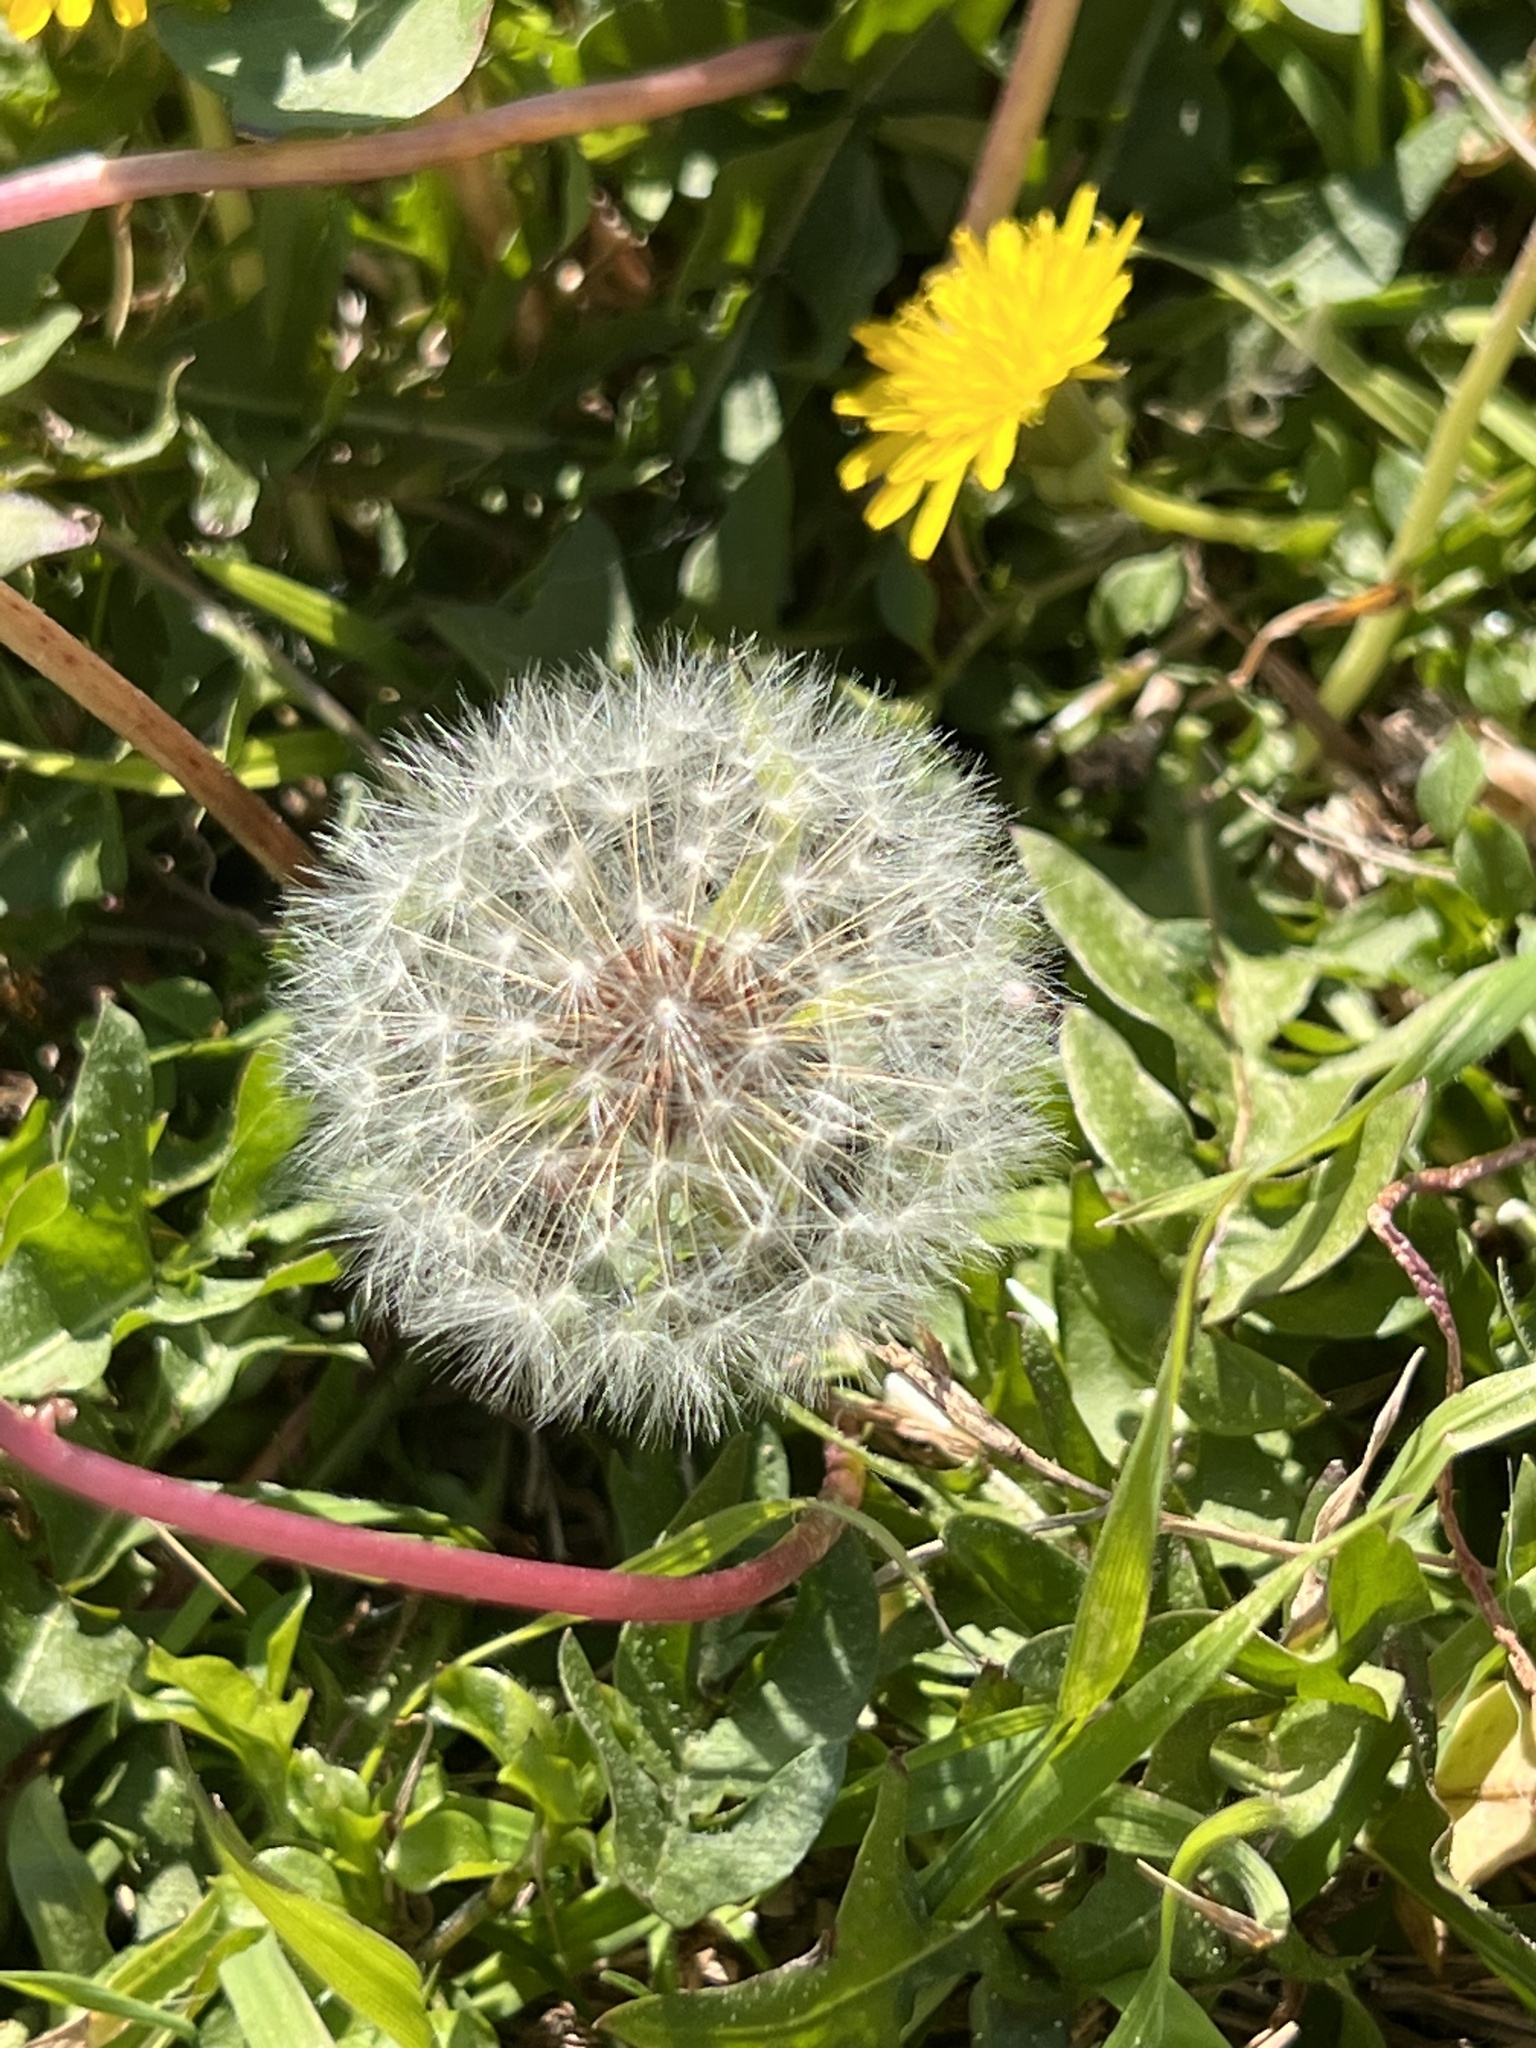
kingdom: Plantae
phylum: Tracheophyta
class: Magnoliopsida
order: Asterales
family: Asteraceae
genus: Taraxacum
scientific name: Taraxacum officinale
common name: Common dandelion
